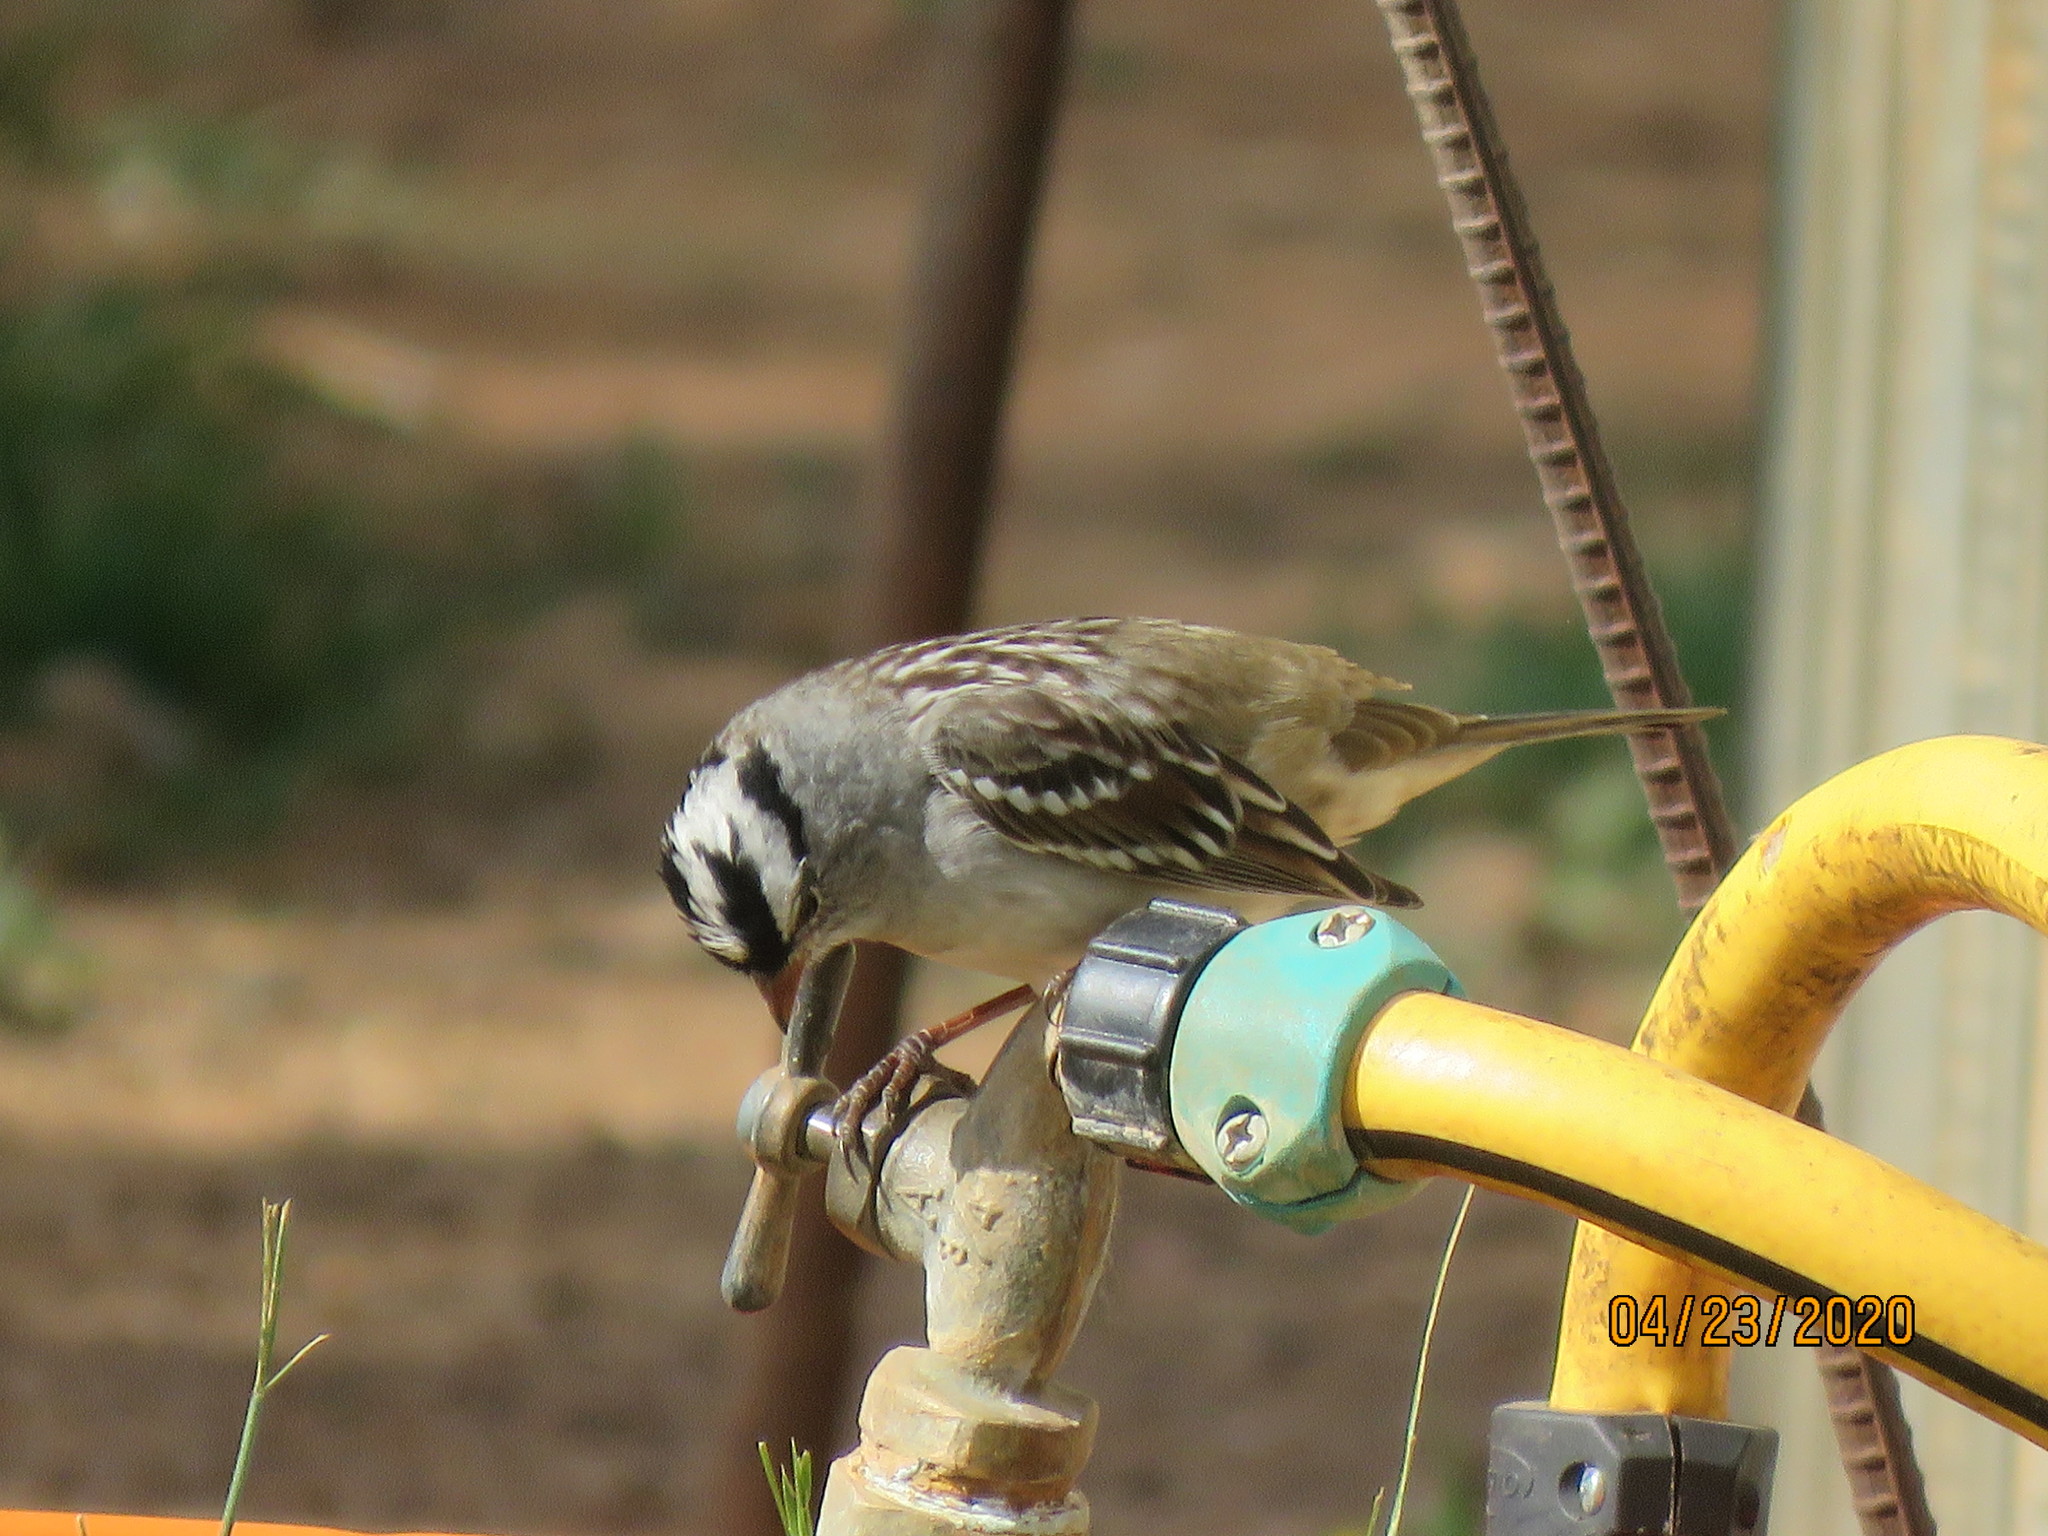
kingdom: Animalia
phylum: Chordata
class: Aves
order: Passeriformes
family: Passerellidae
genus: Zonotrichia
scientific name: Zonotrichia leucophrys
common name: White-crowned sparrow
